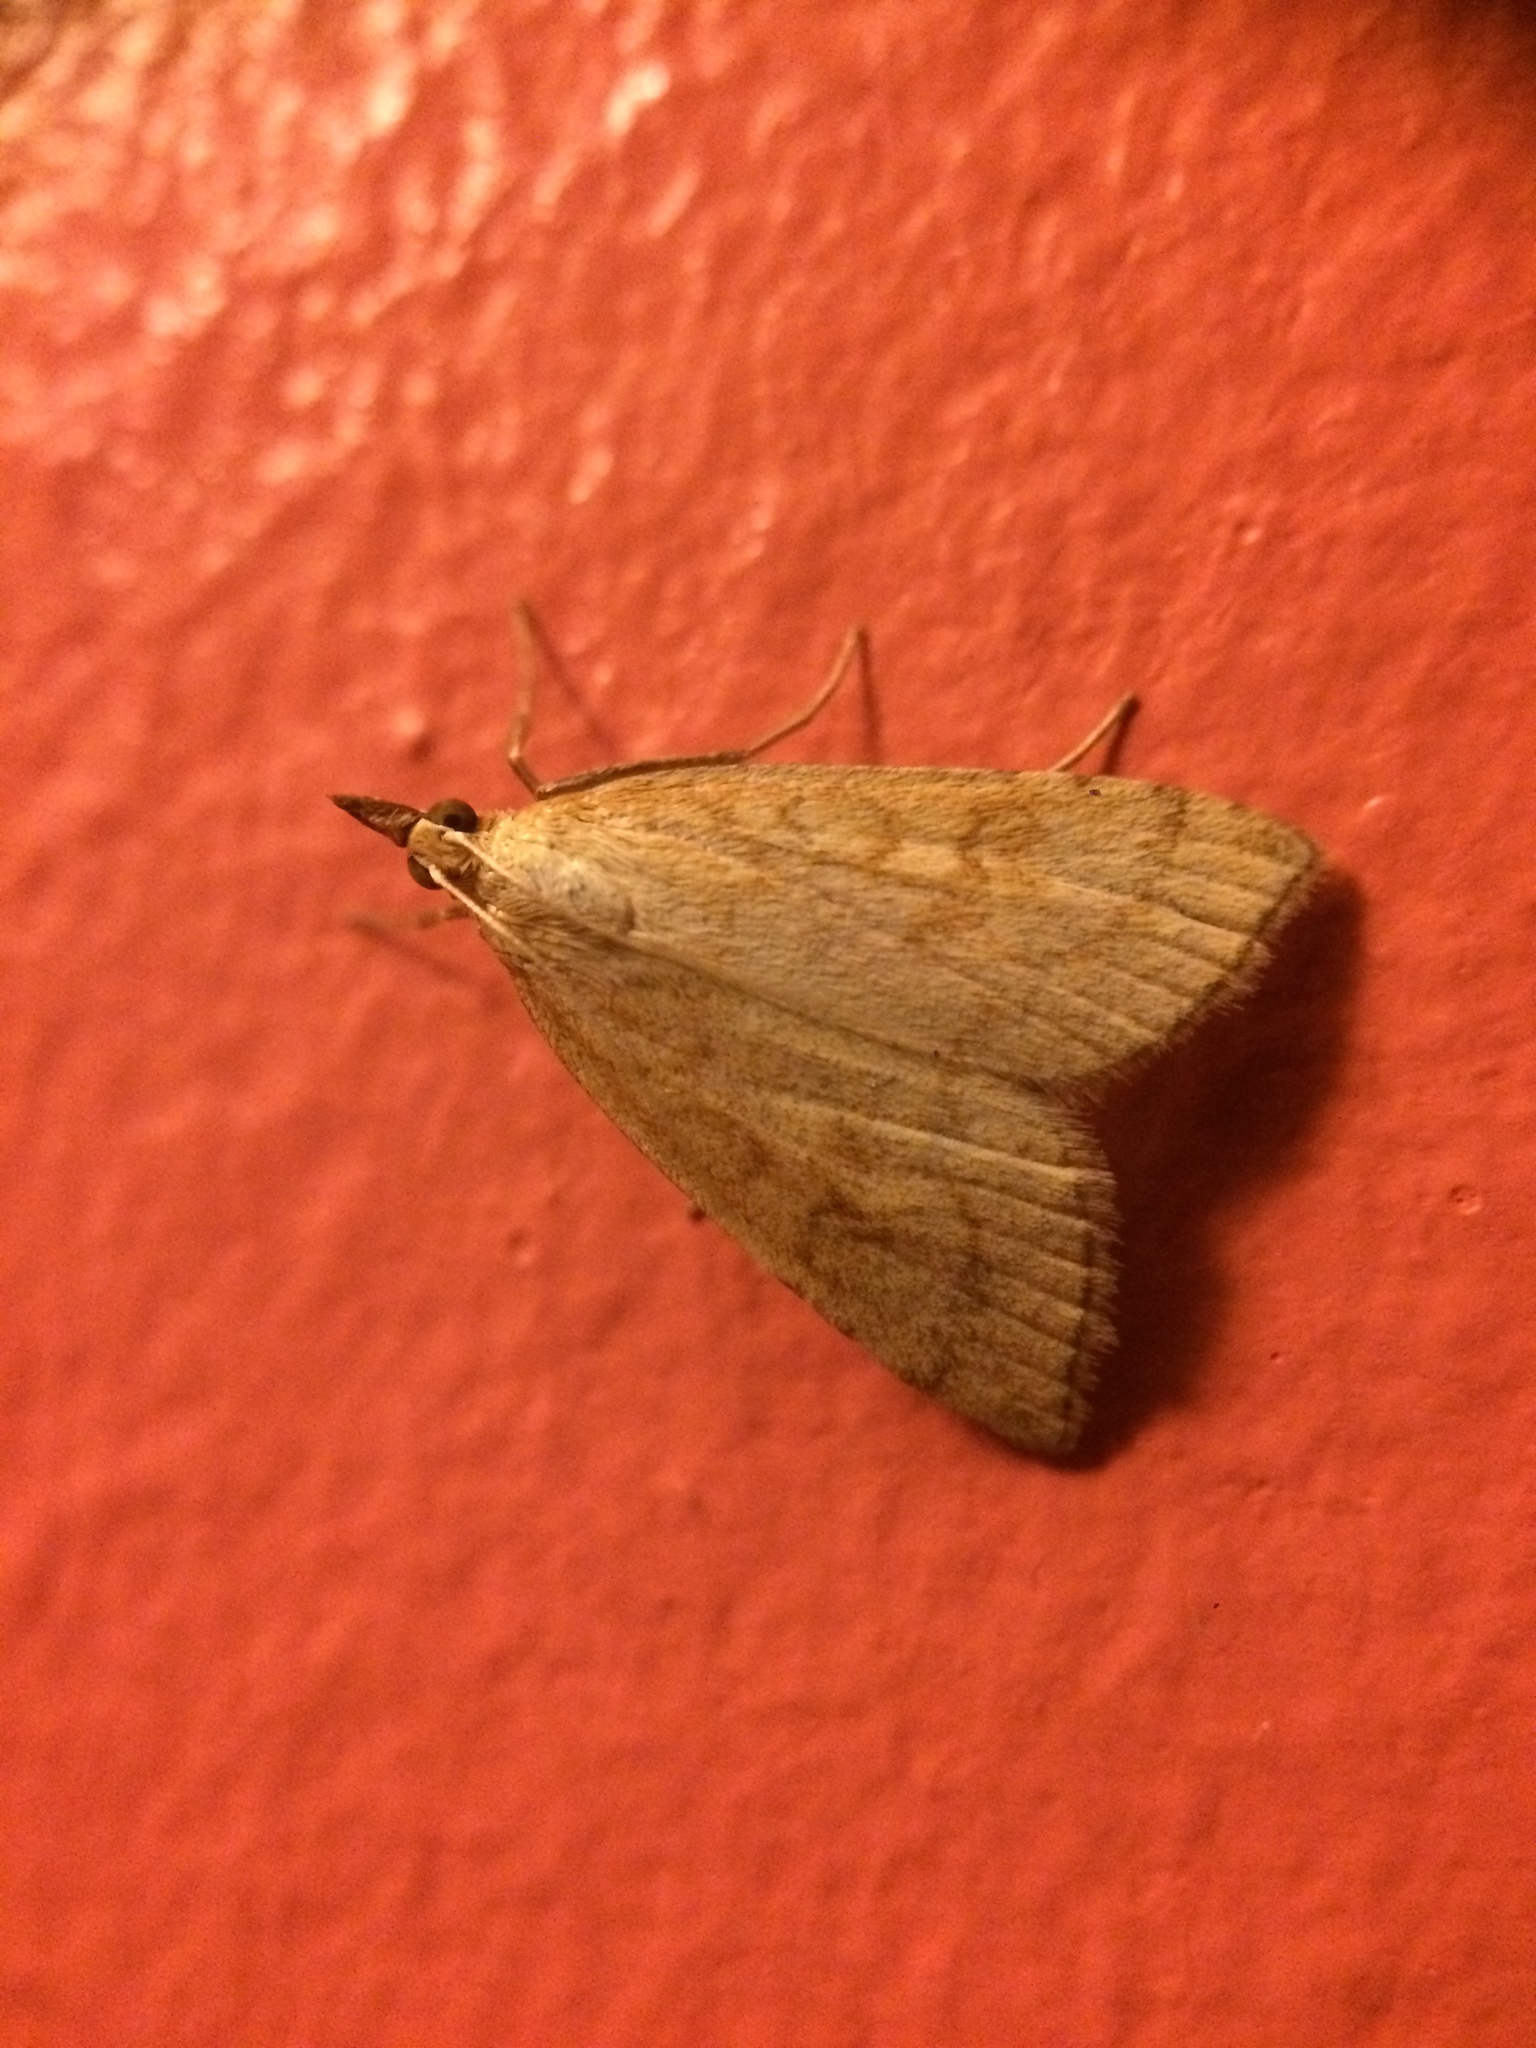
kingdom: Animalia
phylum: Arthropoda
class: Insecta
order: Lepidoptera
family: Crambidae
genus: Udea
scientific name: Udea lutealis
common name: Pale straw pearl
